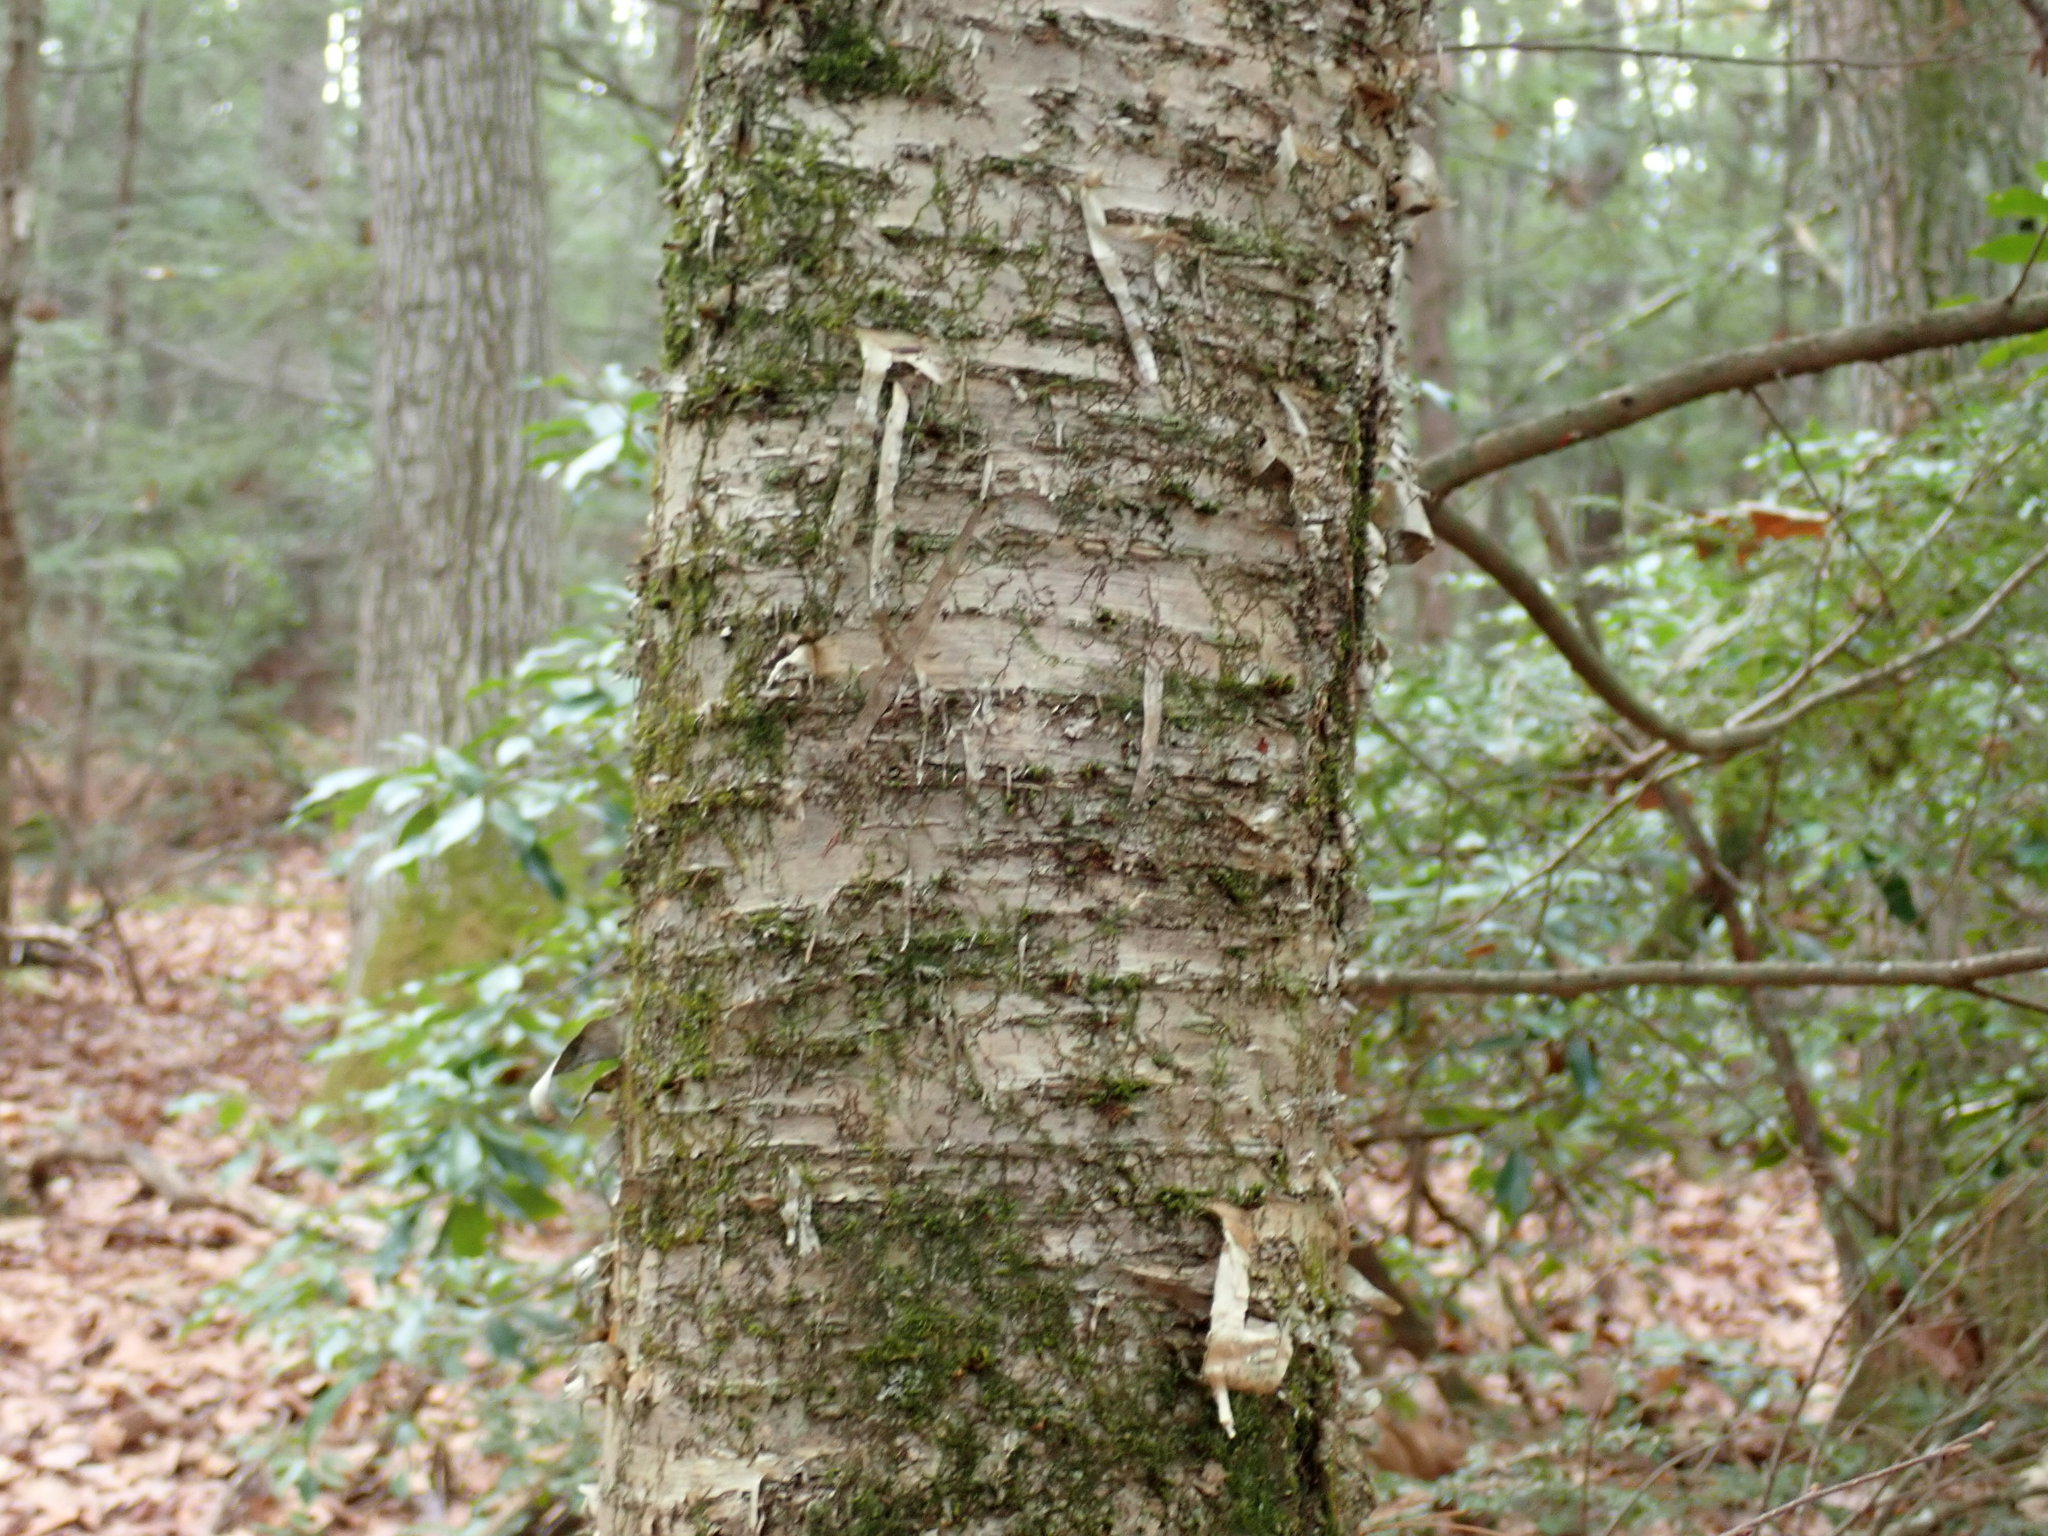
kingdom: Plantae
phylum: Tracheophyta
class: Magnoliopsida
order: Fagales
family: Betulaceae
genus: Betula
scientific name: Betula alleghaniensis
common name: Yellow birch
